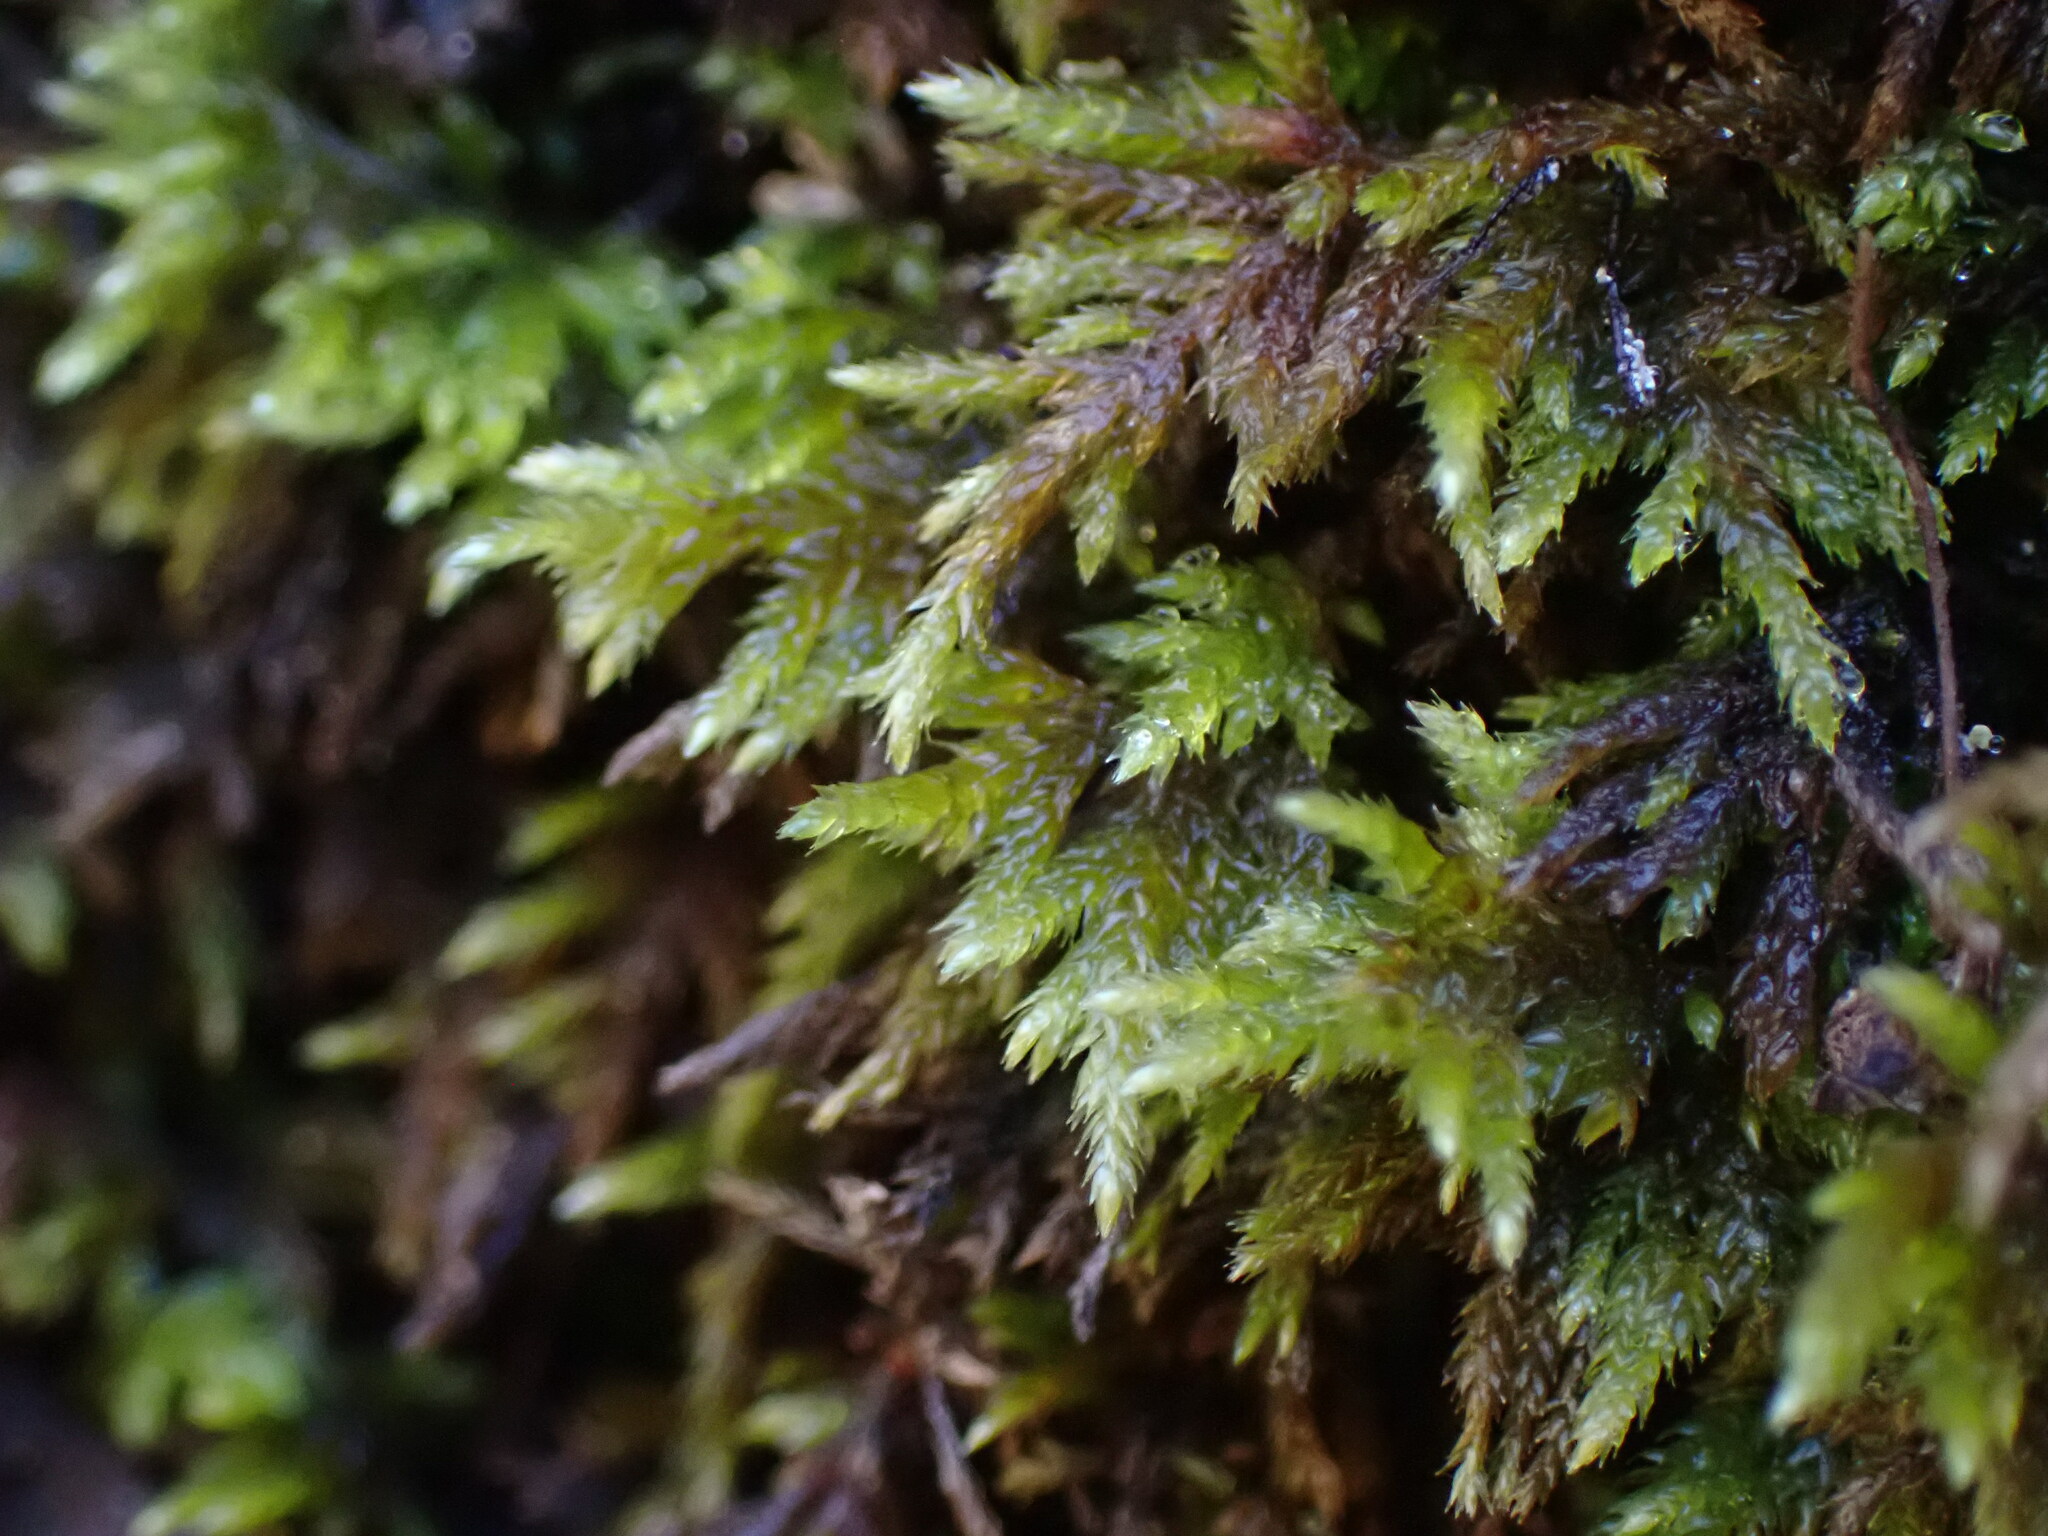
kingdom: Plantae
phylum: Bryophyta
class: Bryopsida
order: Hypnales
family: Lembophyllaceae
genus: Pseudisothecium
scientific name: Pseudisothecium stoloniferum
